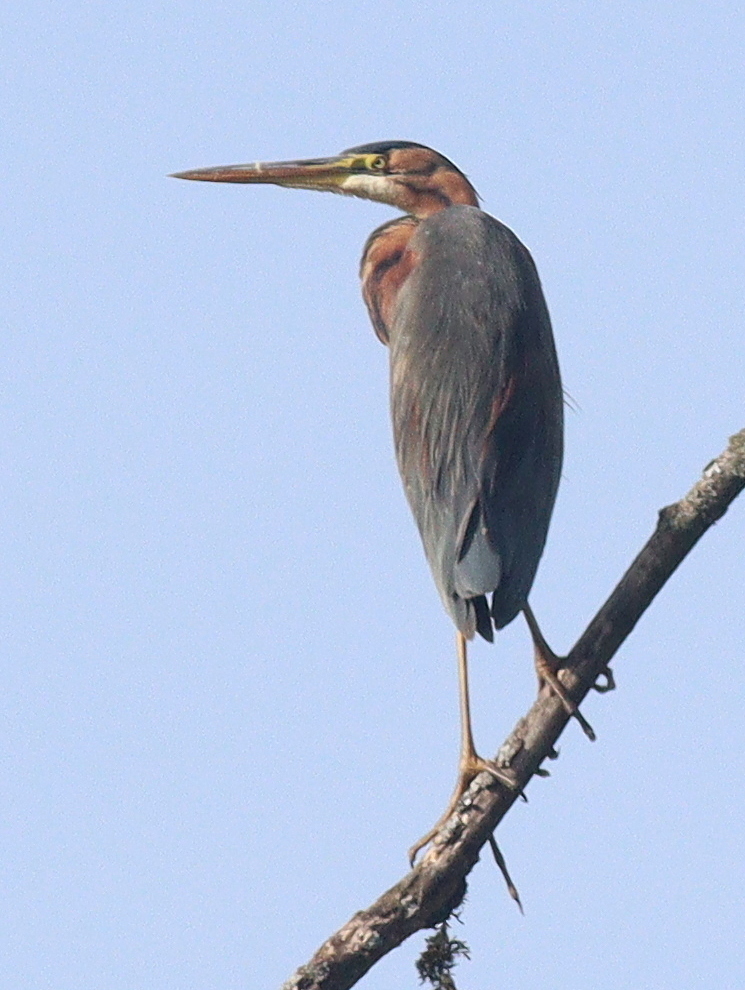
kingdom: Animalia
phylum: Chordata
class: Aves
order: Pelecaniformes
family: Ardeidae
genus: Ardea
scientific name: Ardea purpurea
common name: Purple heron
